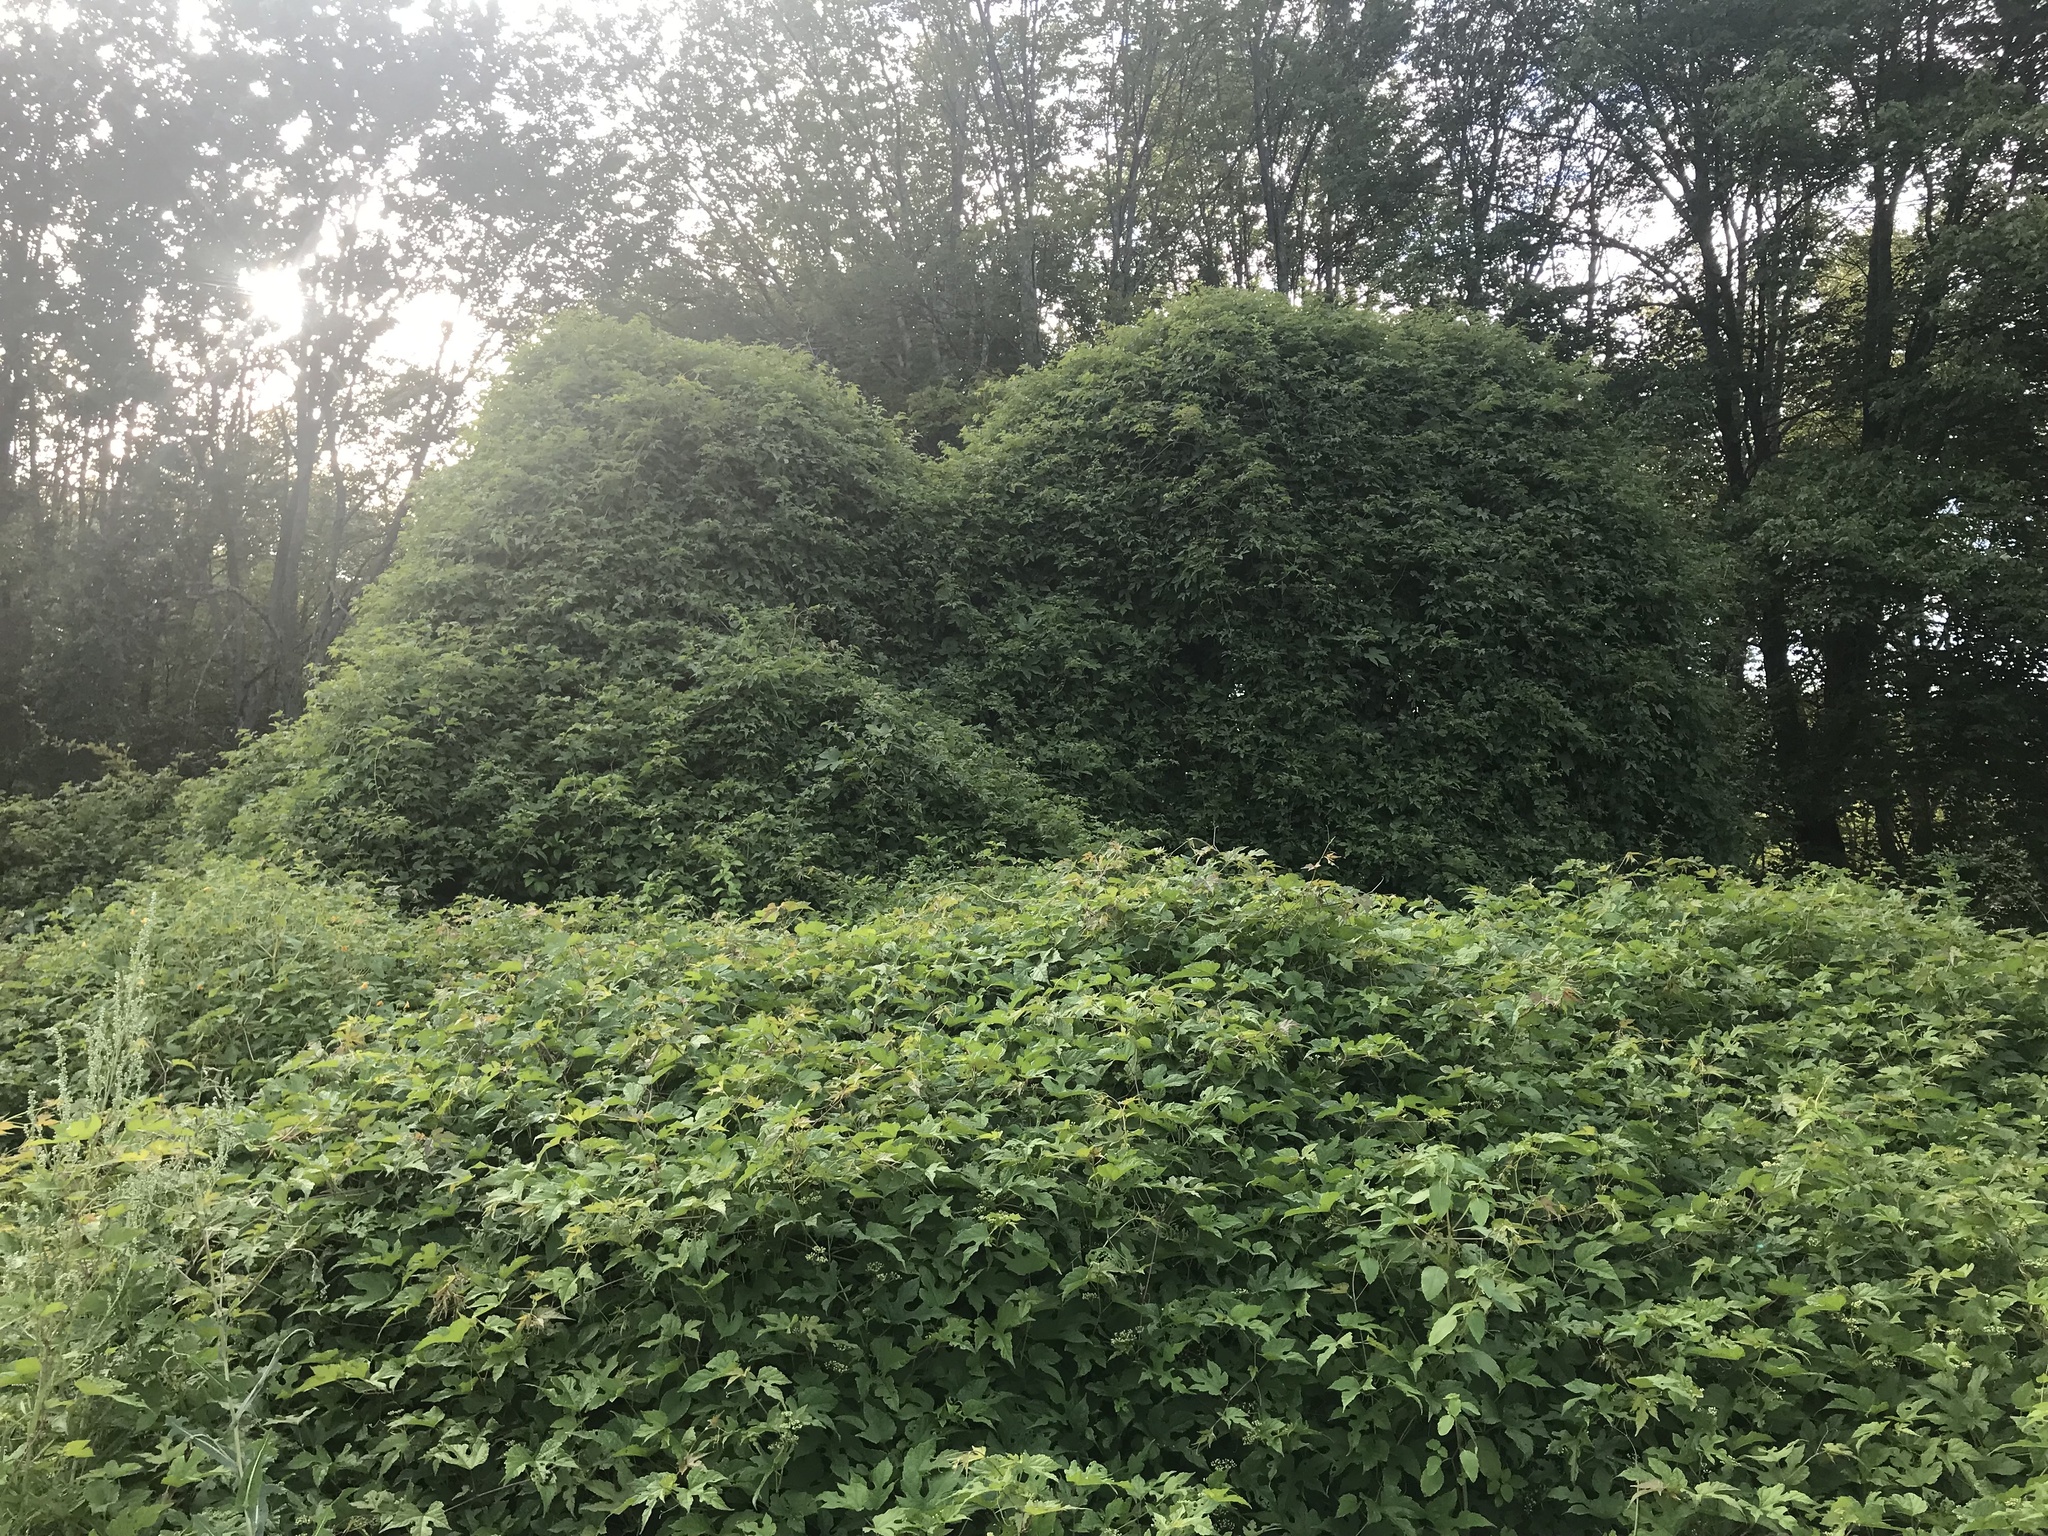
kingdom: Plantae
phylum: Tracheophyta
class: Magnoliopsida
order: Vitales
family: Vitaceae
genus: Ampelopsis
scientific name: Ampelopsis glandulosa
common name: Amur peppervine
